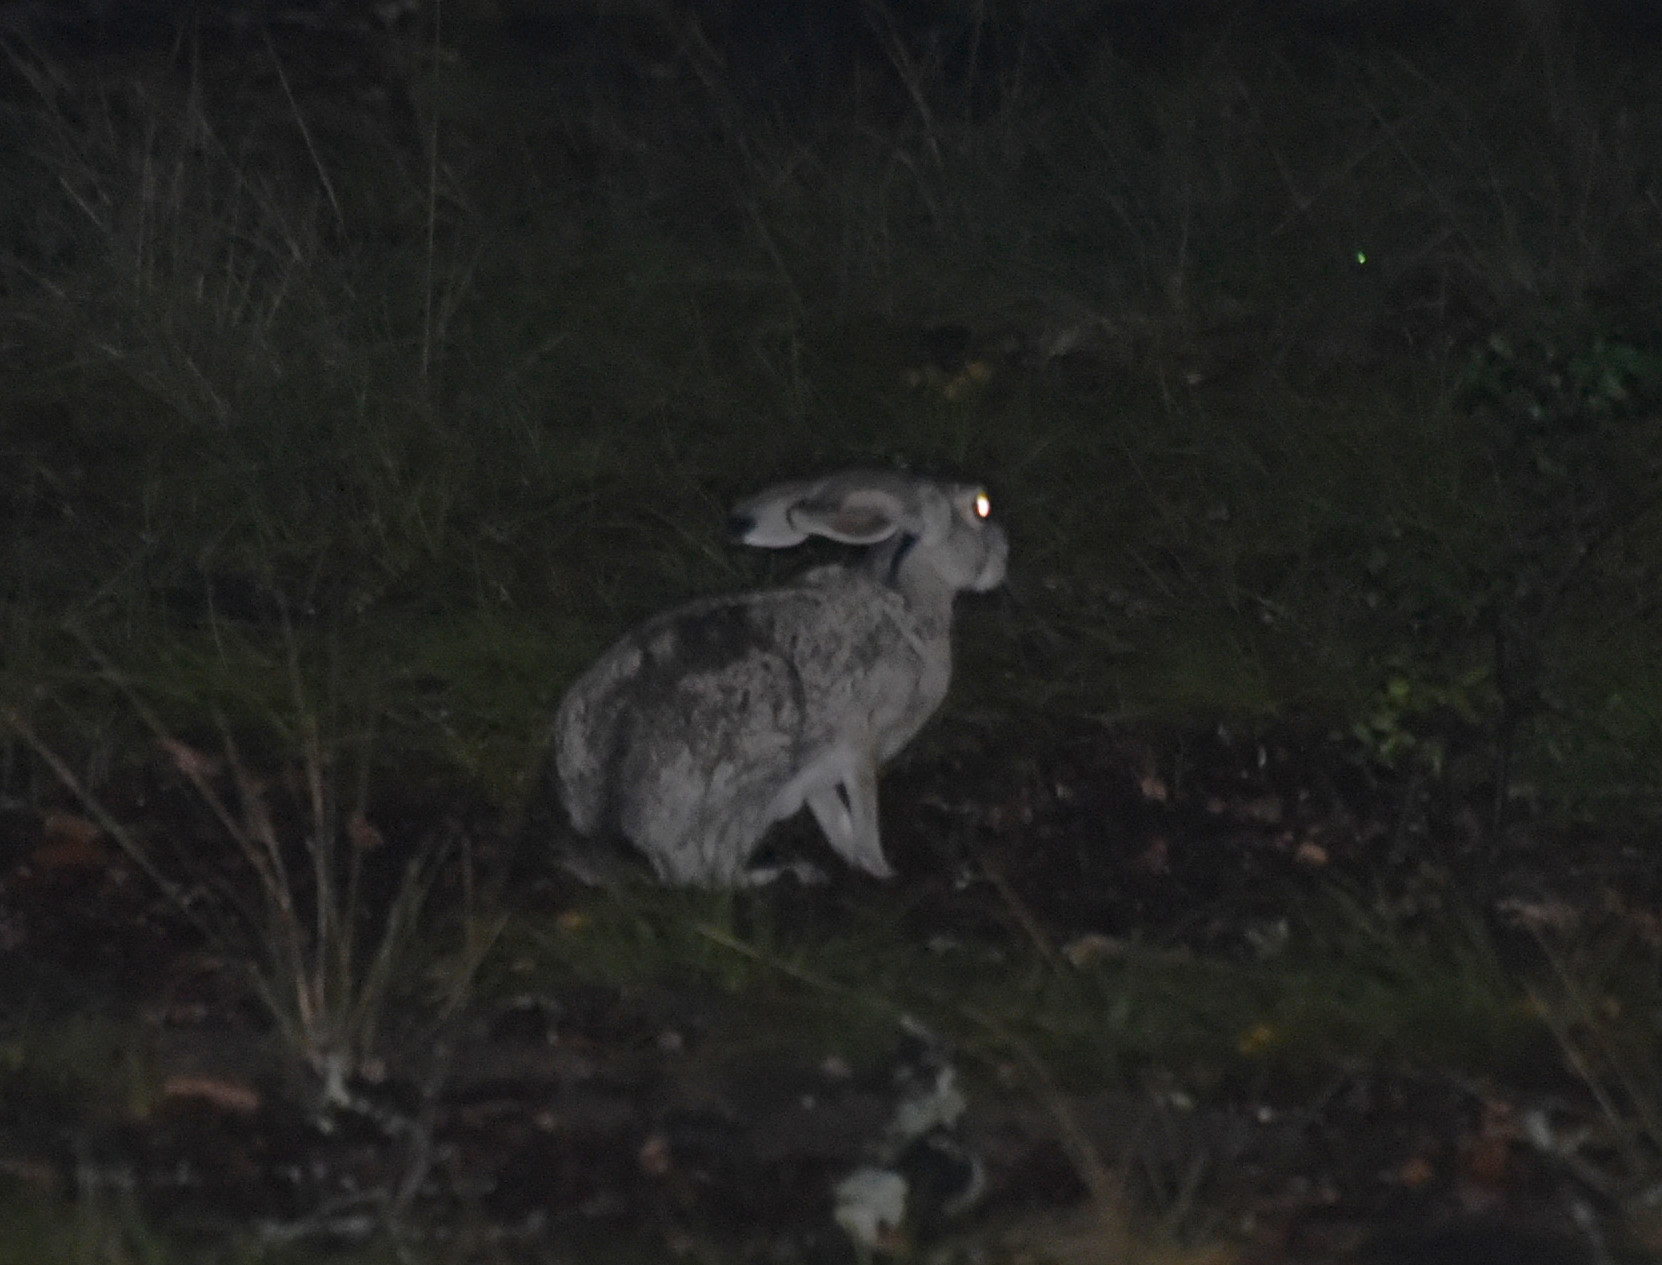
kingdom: Animalia
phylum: Chordata
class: Mammalia
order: Lagomorpha
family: Leporidae
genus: Lepus
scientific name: Lepus californicus
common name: Black-tailed jackrabbit
